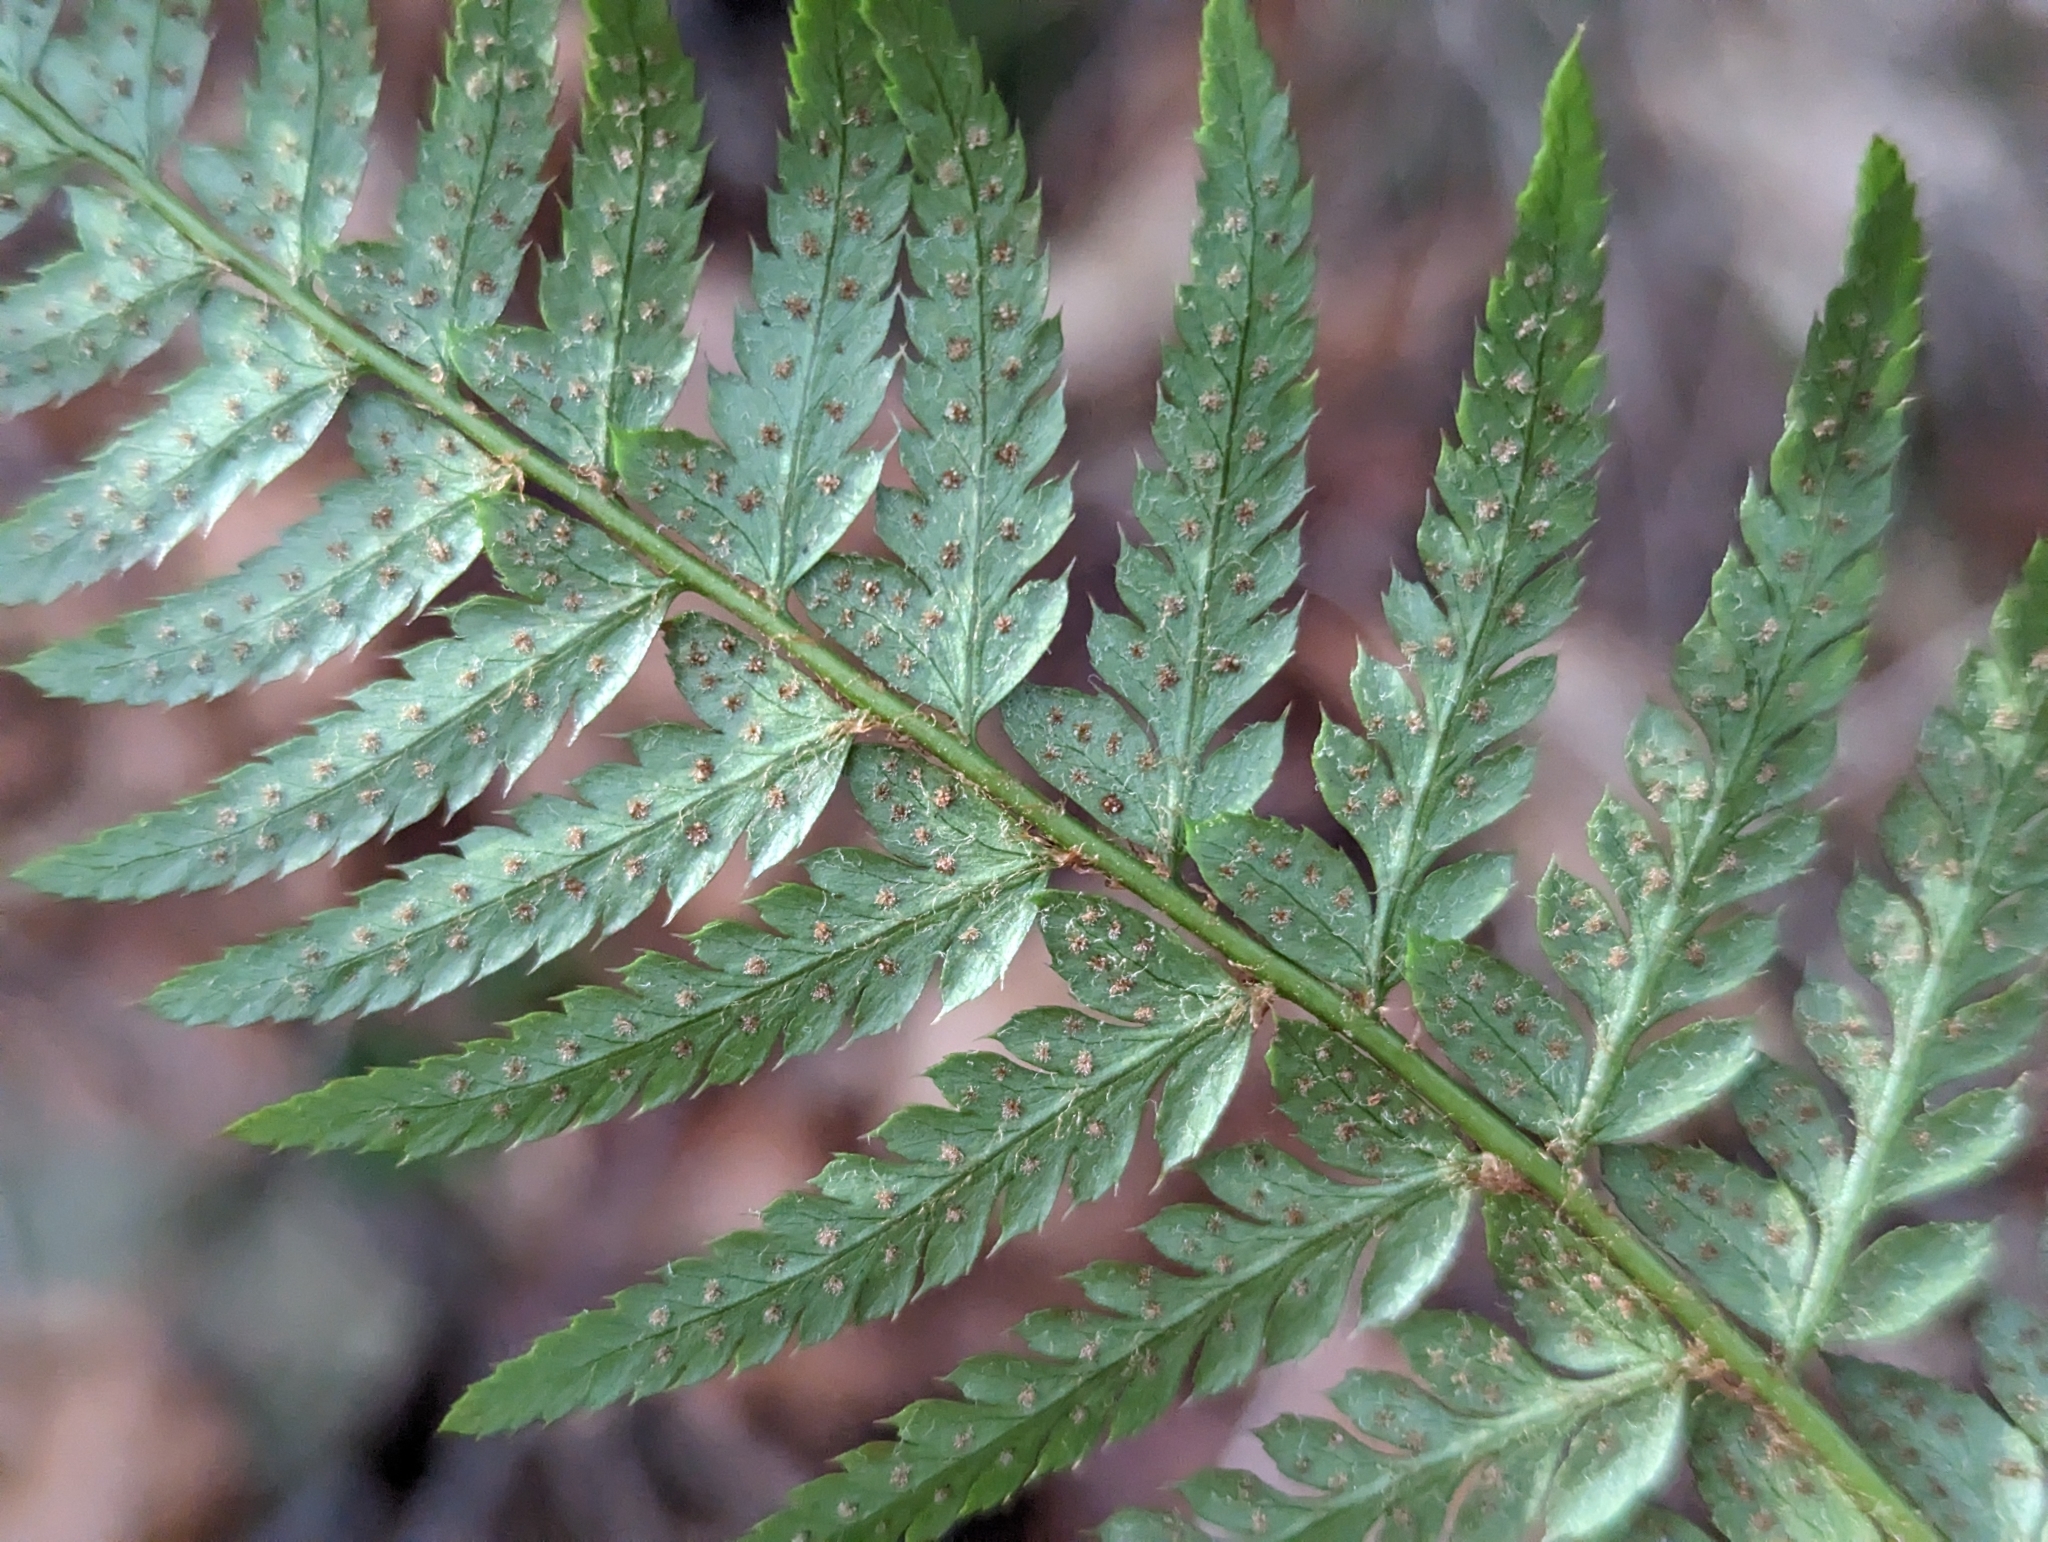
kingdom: Plantae
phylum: Tracheophyta
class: Polypodiopsida
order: Polypodiales
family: Dryopteridaceae
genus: Polystichum
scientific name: Polystichum aculeatum
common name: Hard shield-fern
